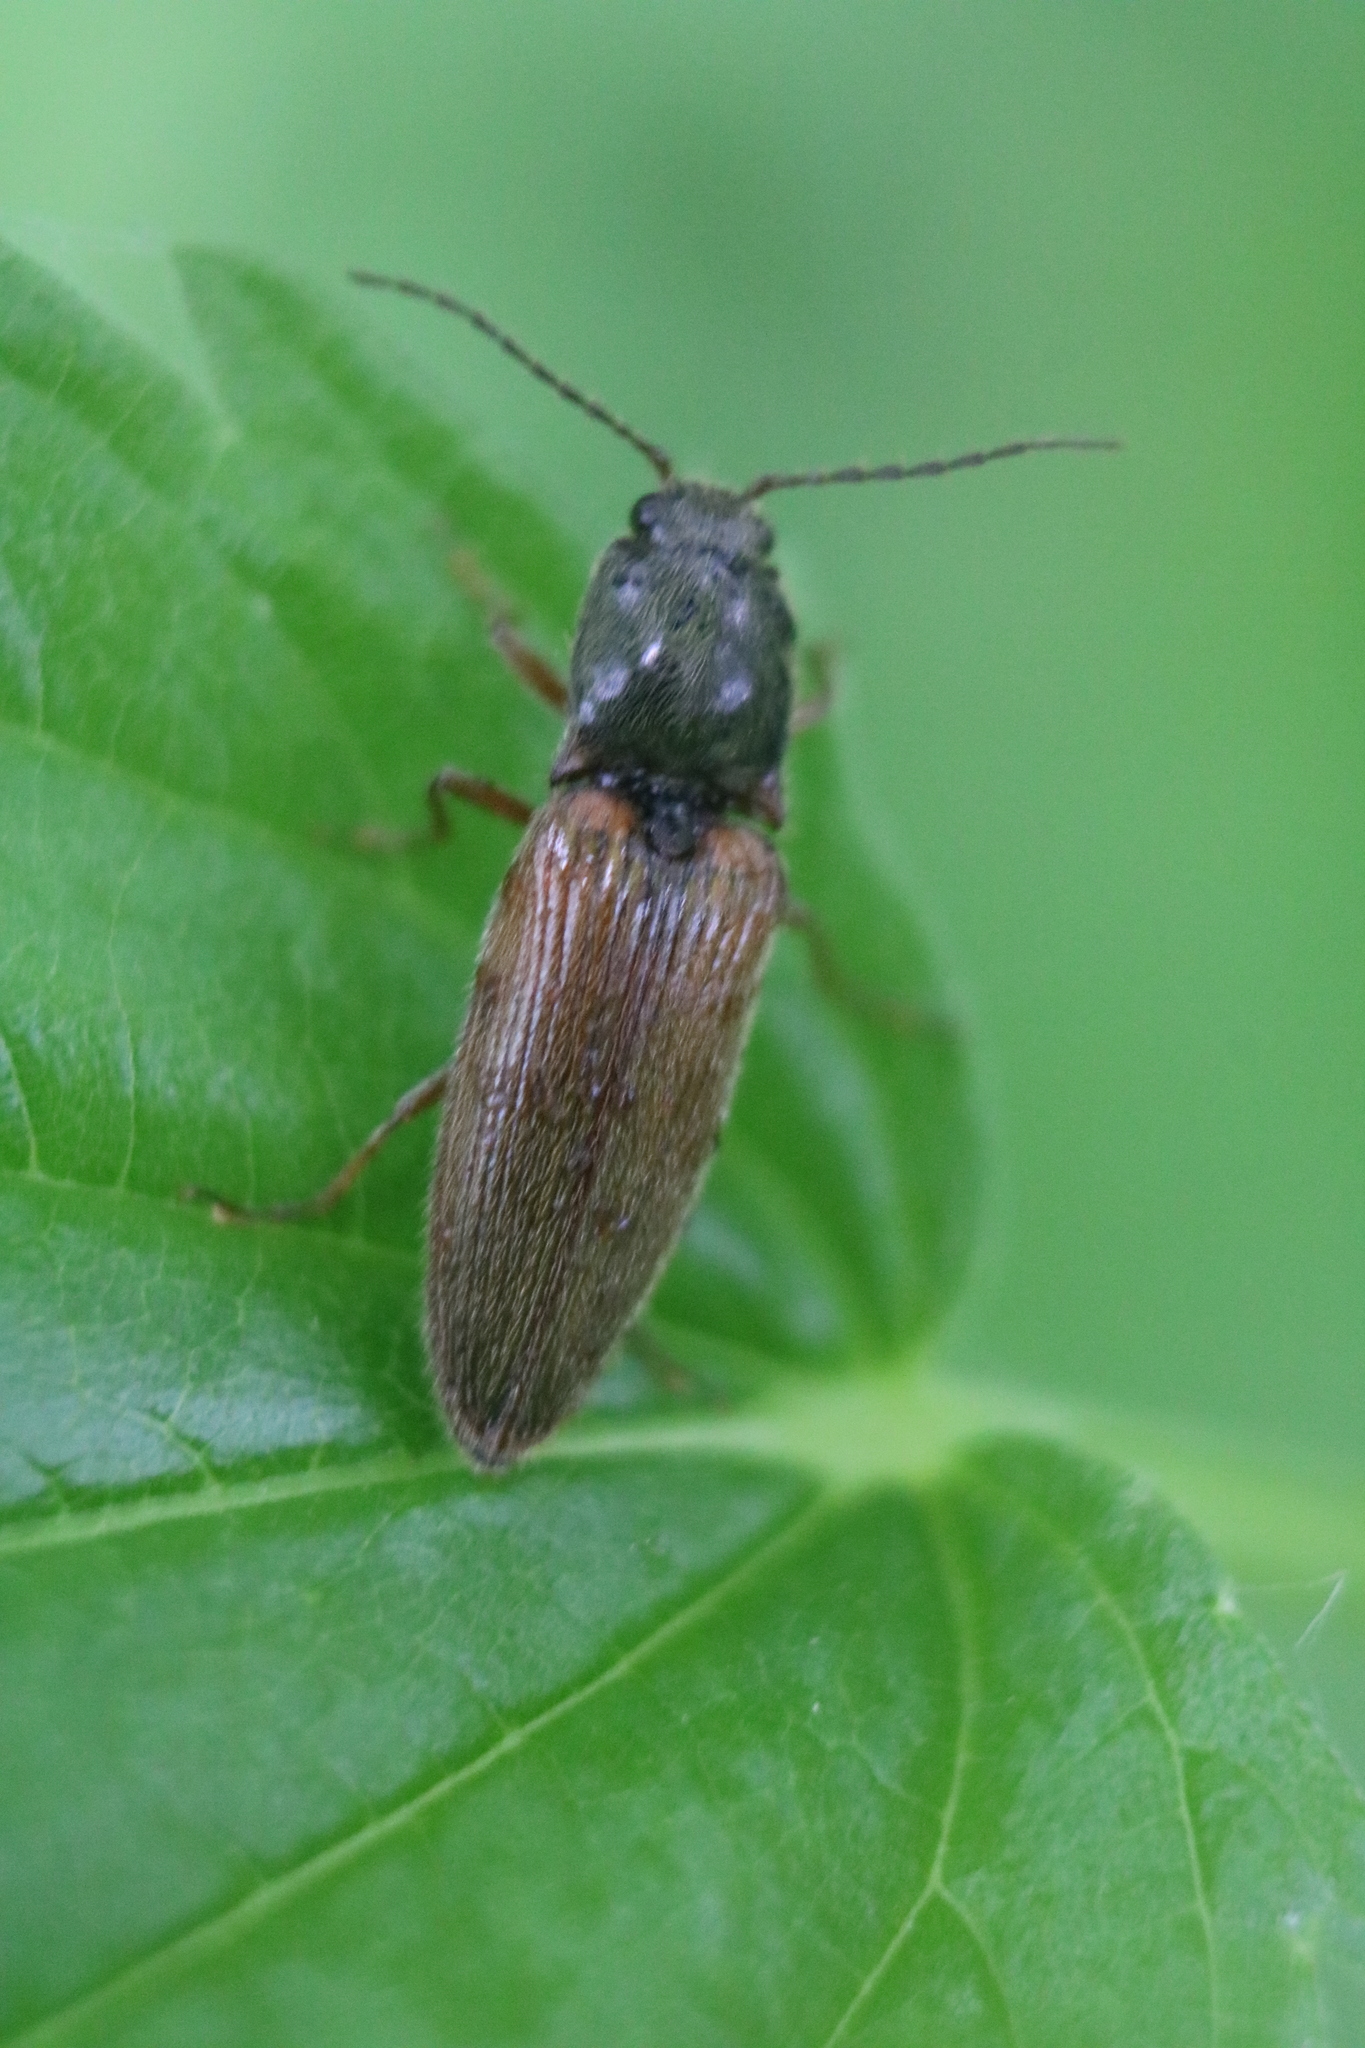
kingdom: Animalia
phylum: Arthropoda
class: Insecta
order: Coleoptera
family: Elateridae
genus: Hemicrepidius
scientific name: Hemicrepidius
